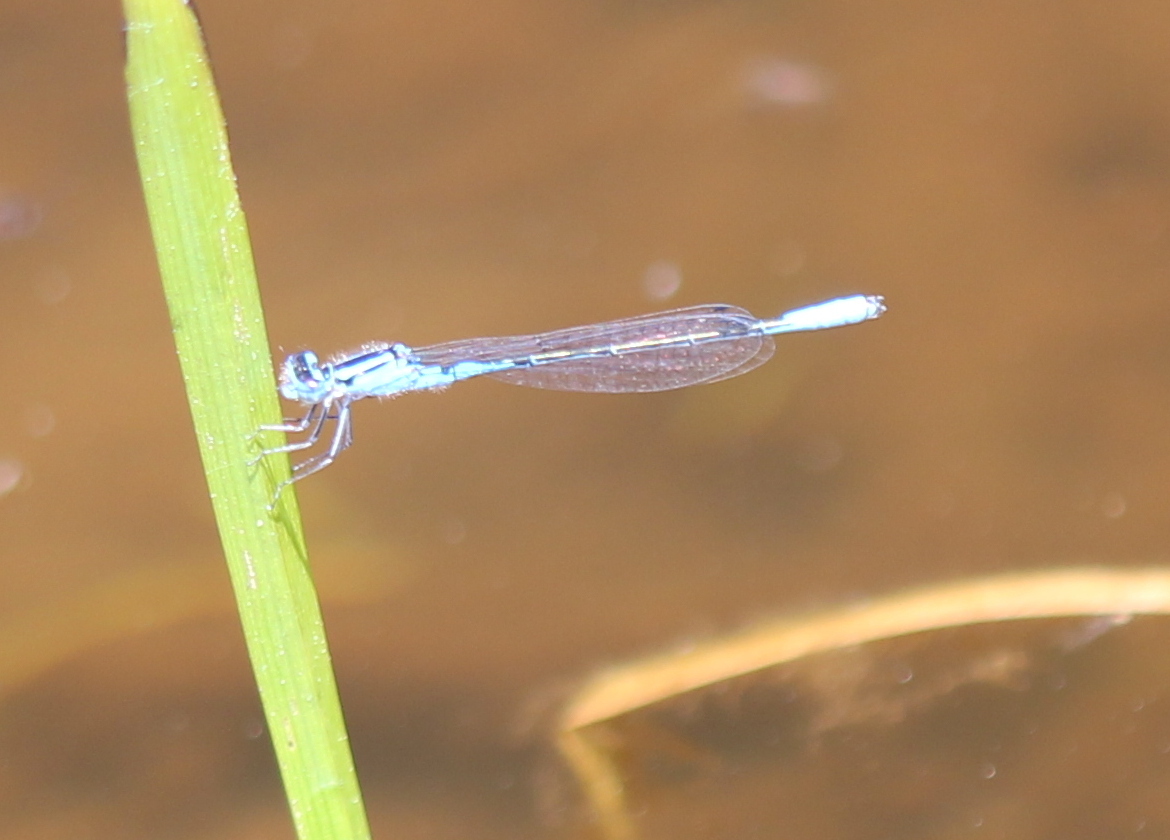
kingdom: Animalia
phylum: Arthropoda
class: Insecta
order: Odonata
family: Coenagrionidae
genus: Enallagma
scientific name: Enallagma aspersum
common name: Azure bluet
